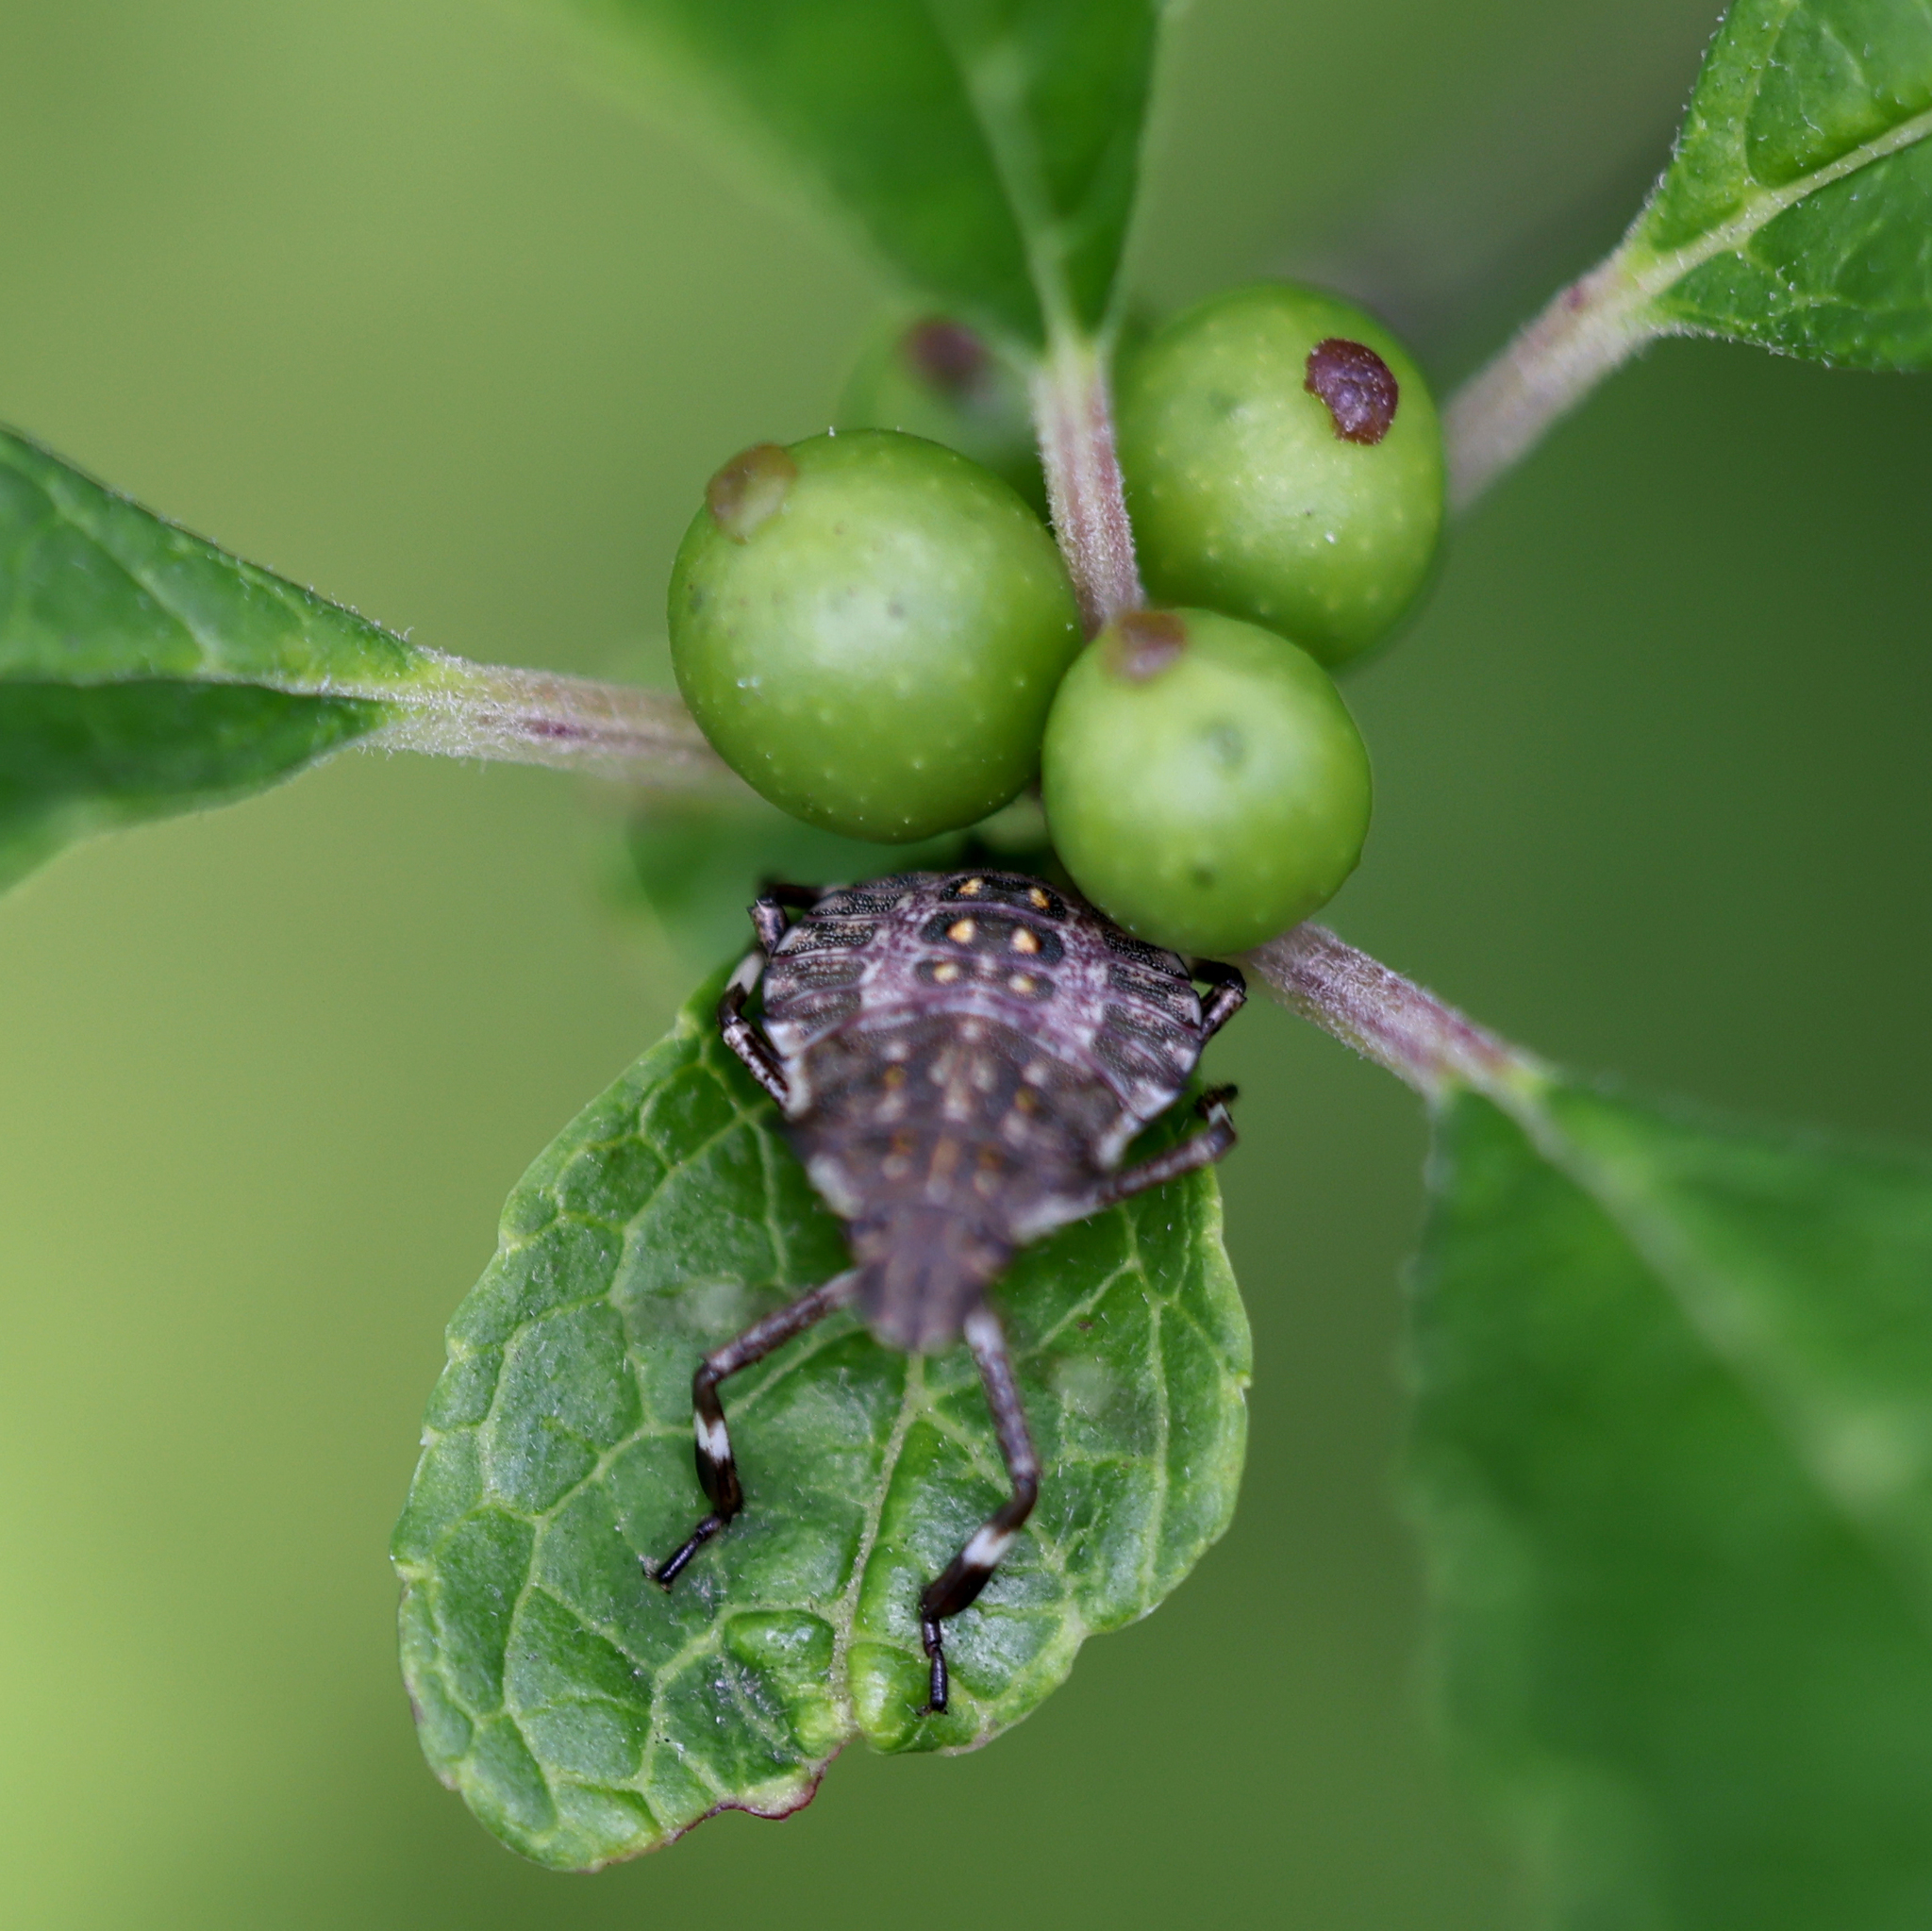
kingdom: Animalia
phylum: Arthropoda
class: Insecta
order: Hemiptera
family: Pentatomidae
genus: Halyomorpha
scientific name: Halyomorpha halys
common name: Brown marmorated stink bug
